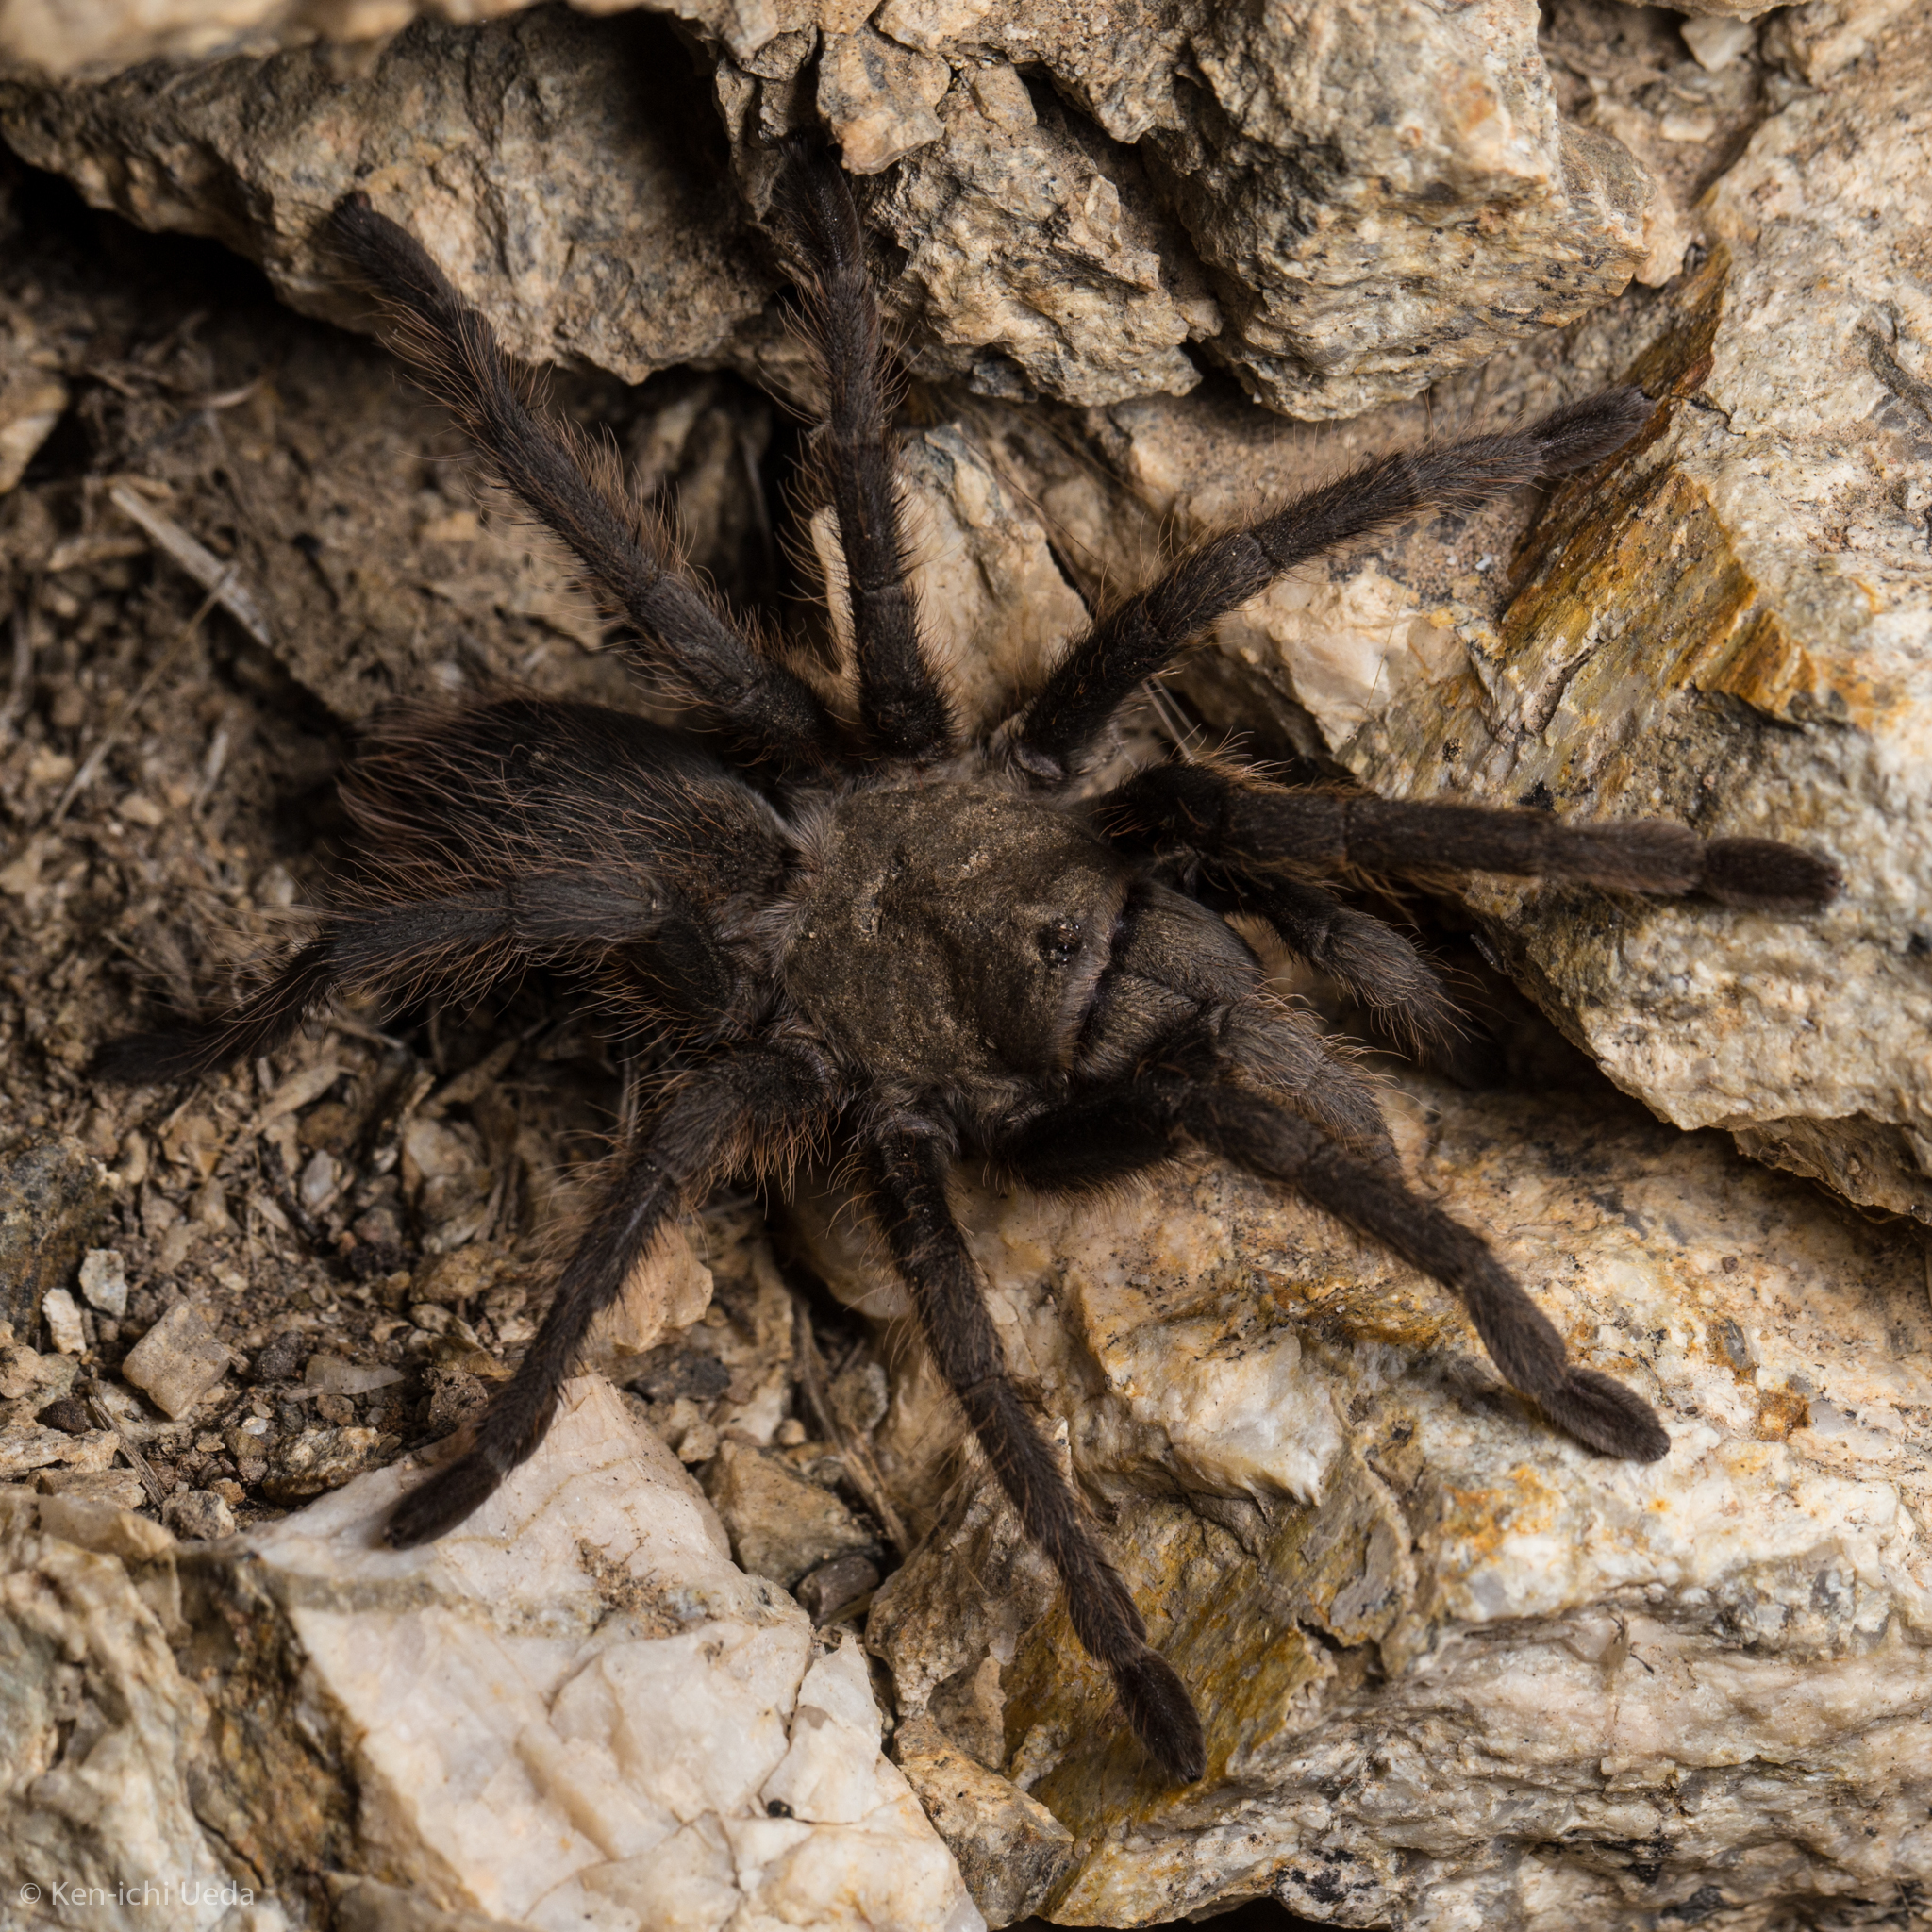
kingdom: Animalia
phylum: Arthropoda
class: Arachnida
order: Araneae
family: Theraphosidae
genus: Aphonopelma
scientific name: Aphonopelma catalina
